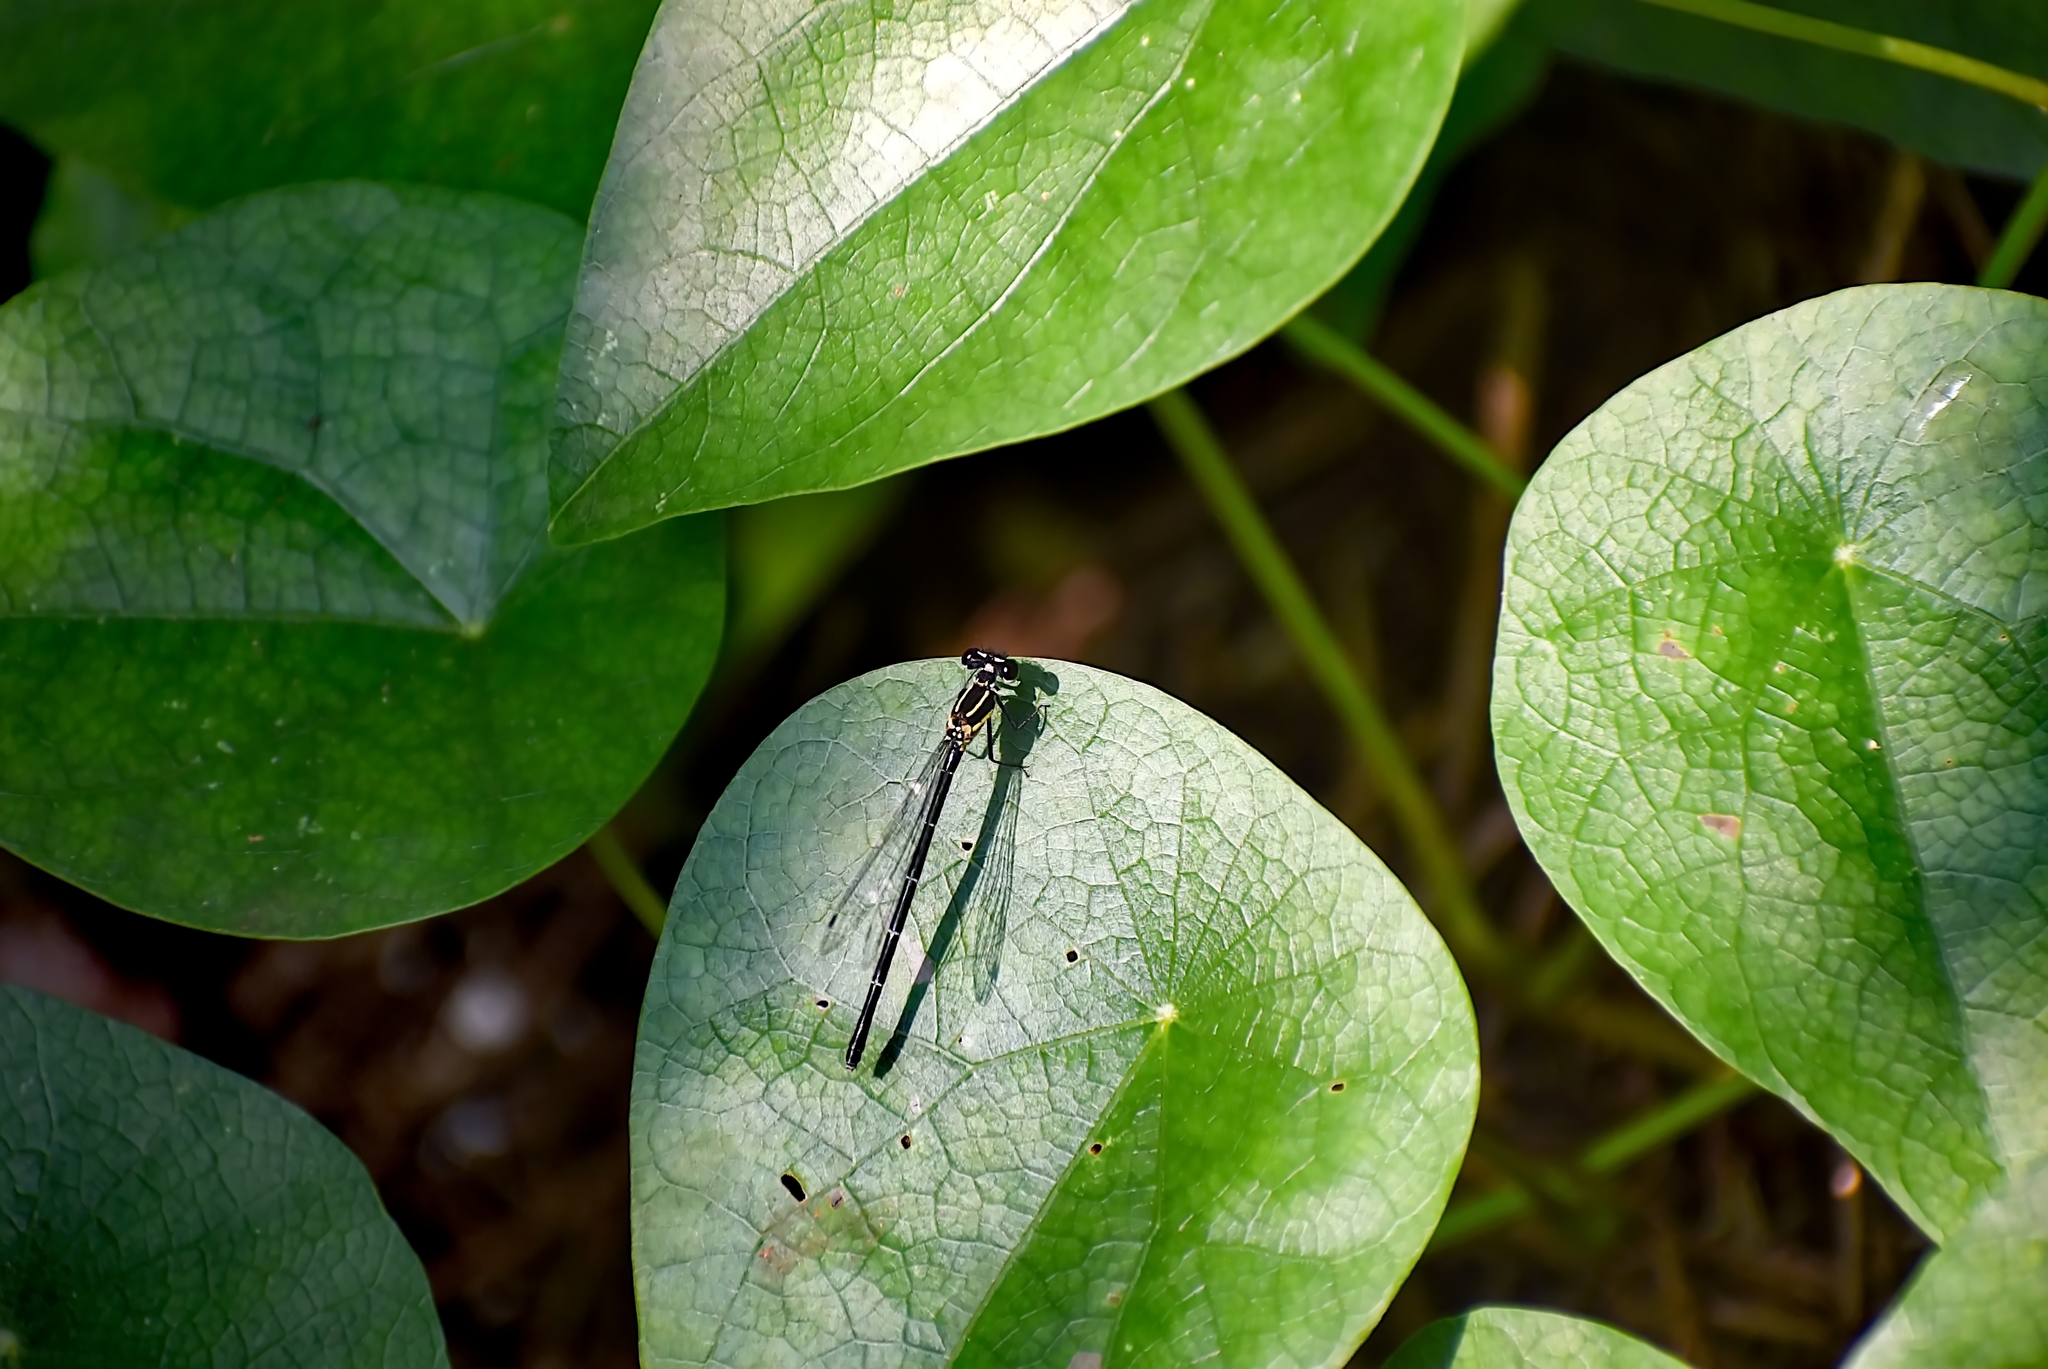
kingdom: Animalia
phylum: Arthropoda
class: Insecta
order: Odonata
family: Platycnemididae
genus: Onychargia
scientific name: Onychargia atrocyana
